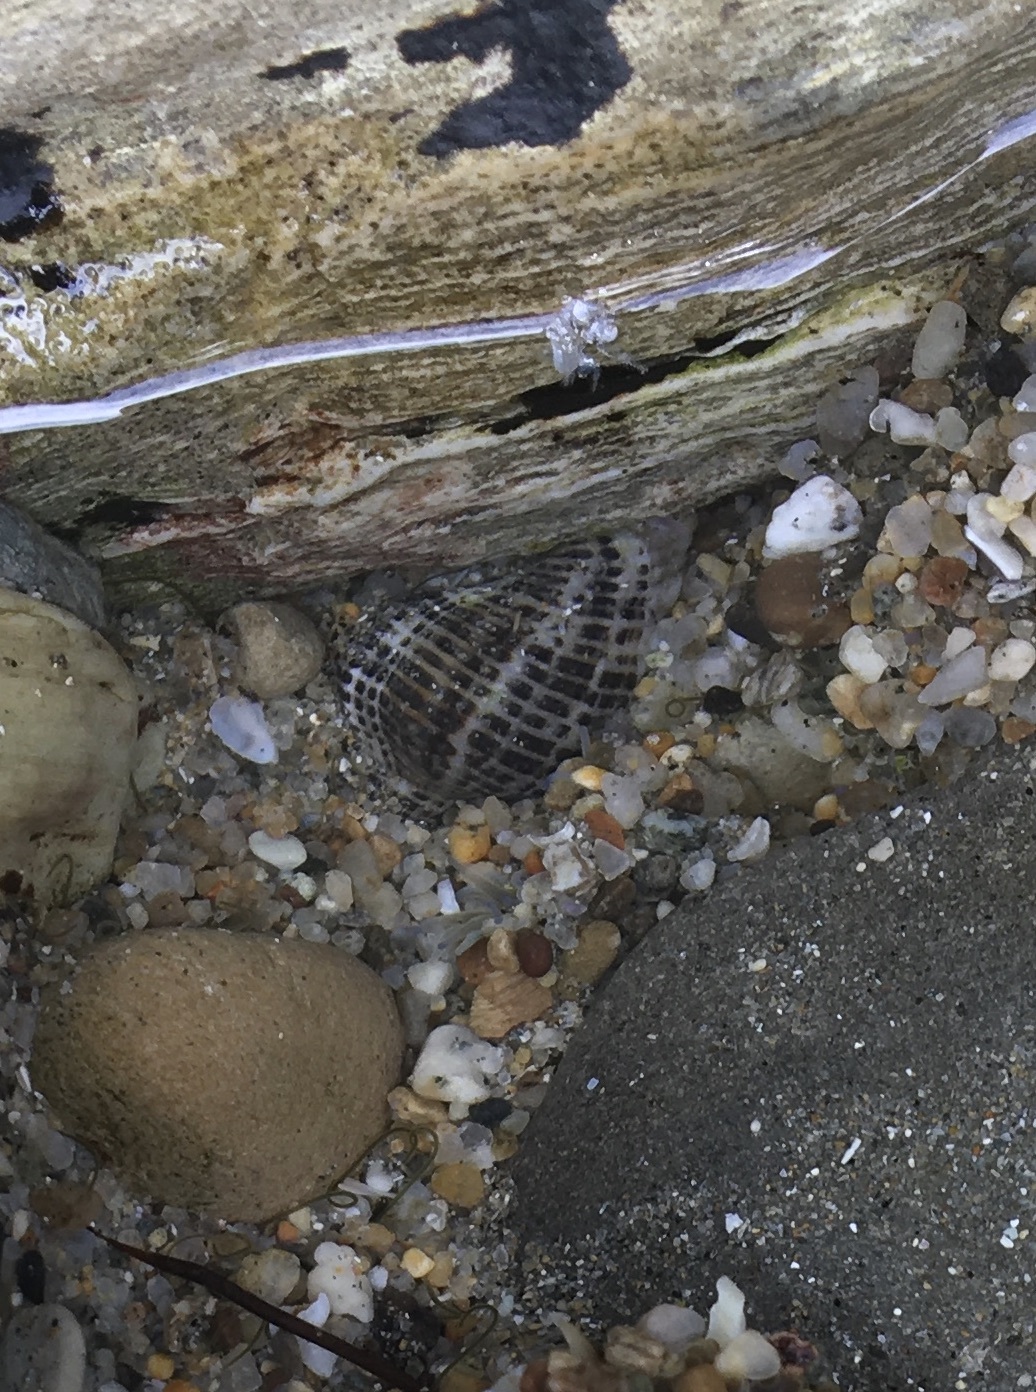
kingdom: Animalia
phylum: Mollusca
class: Gastropoda
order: Neogastropoda
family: Muricidae
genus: Acanthinucella
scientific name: Acanthinucella spirata
